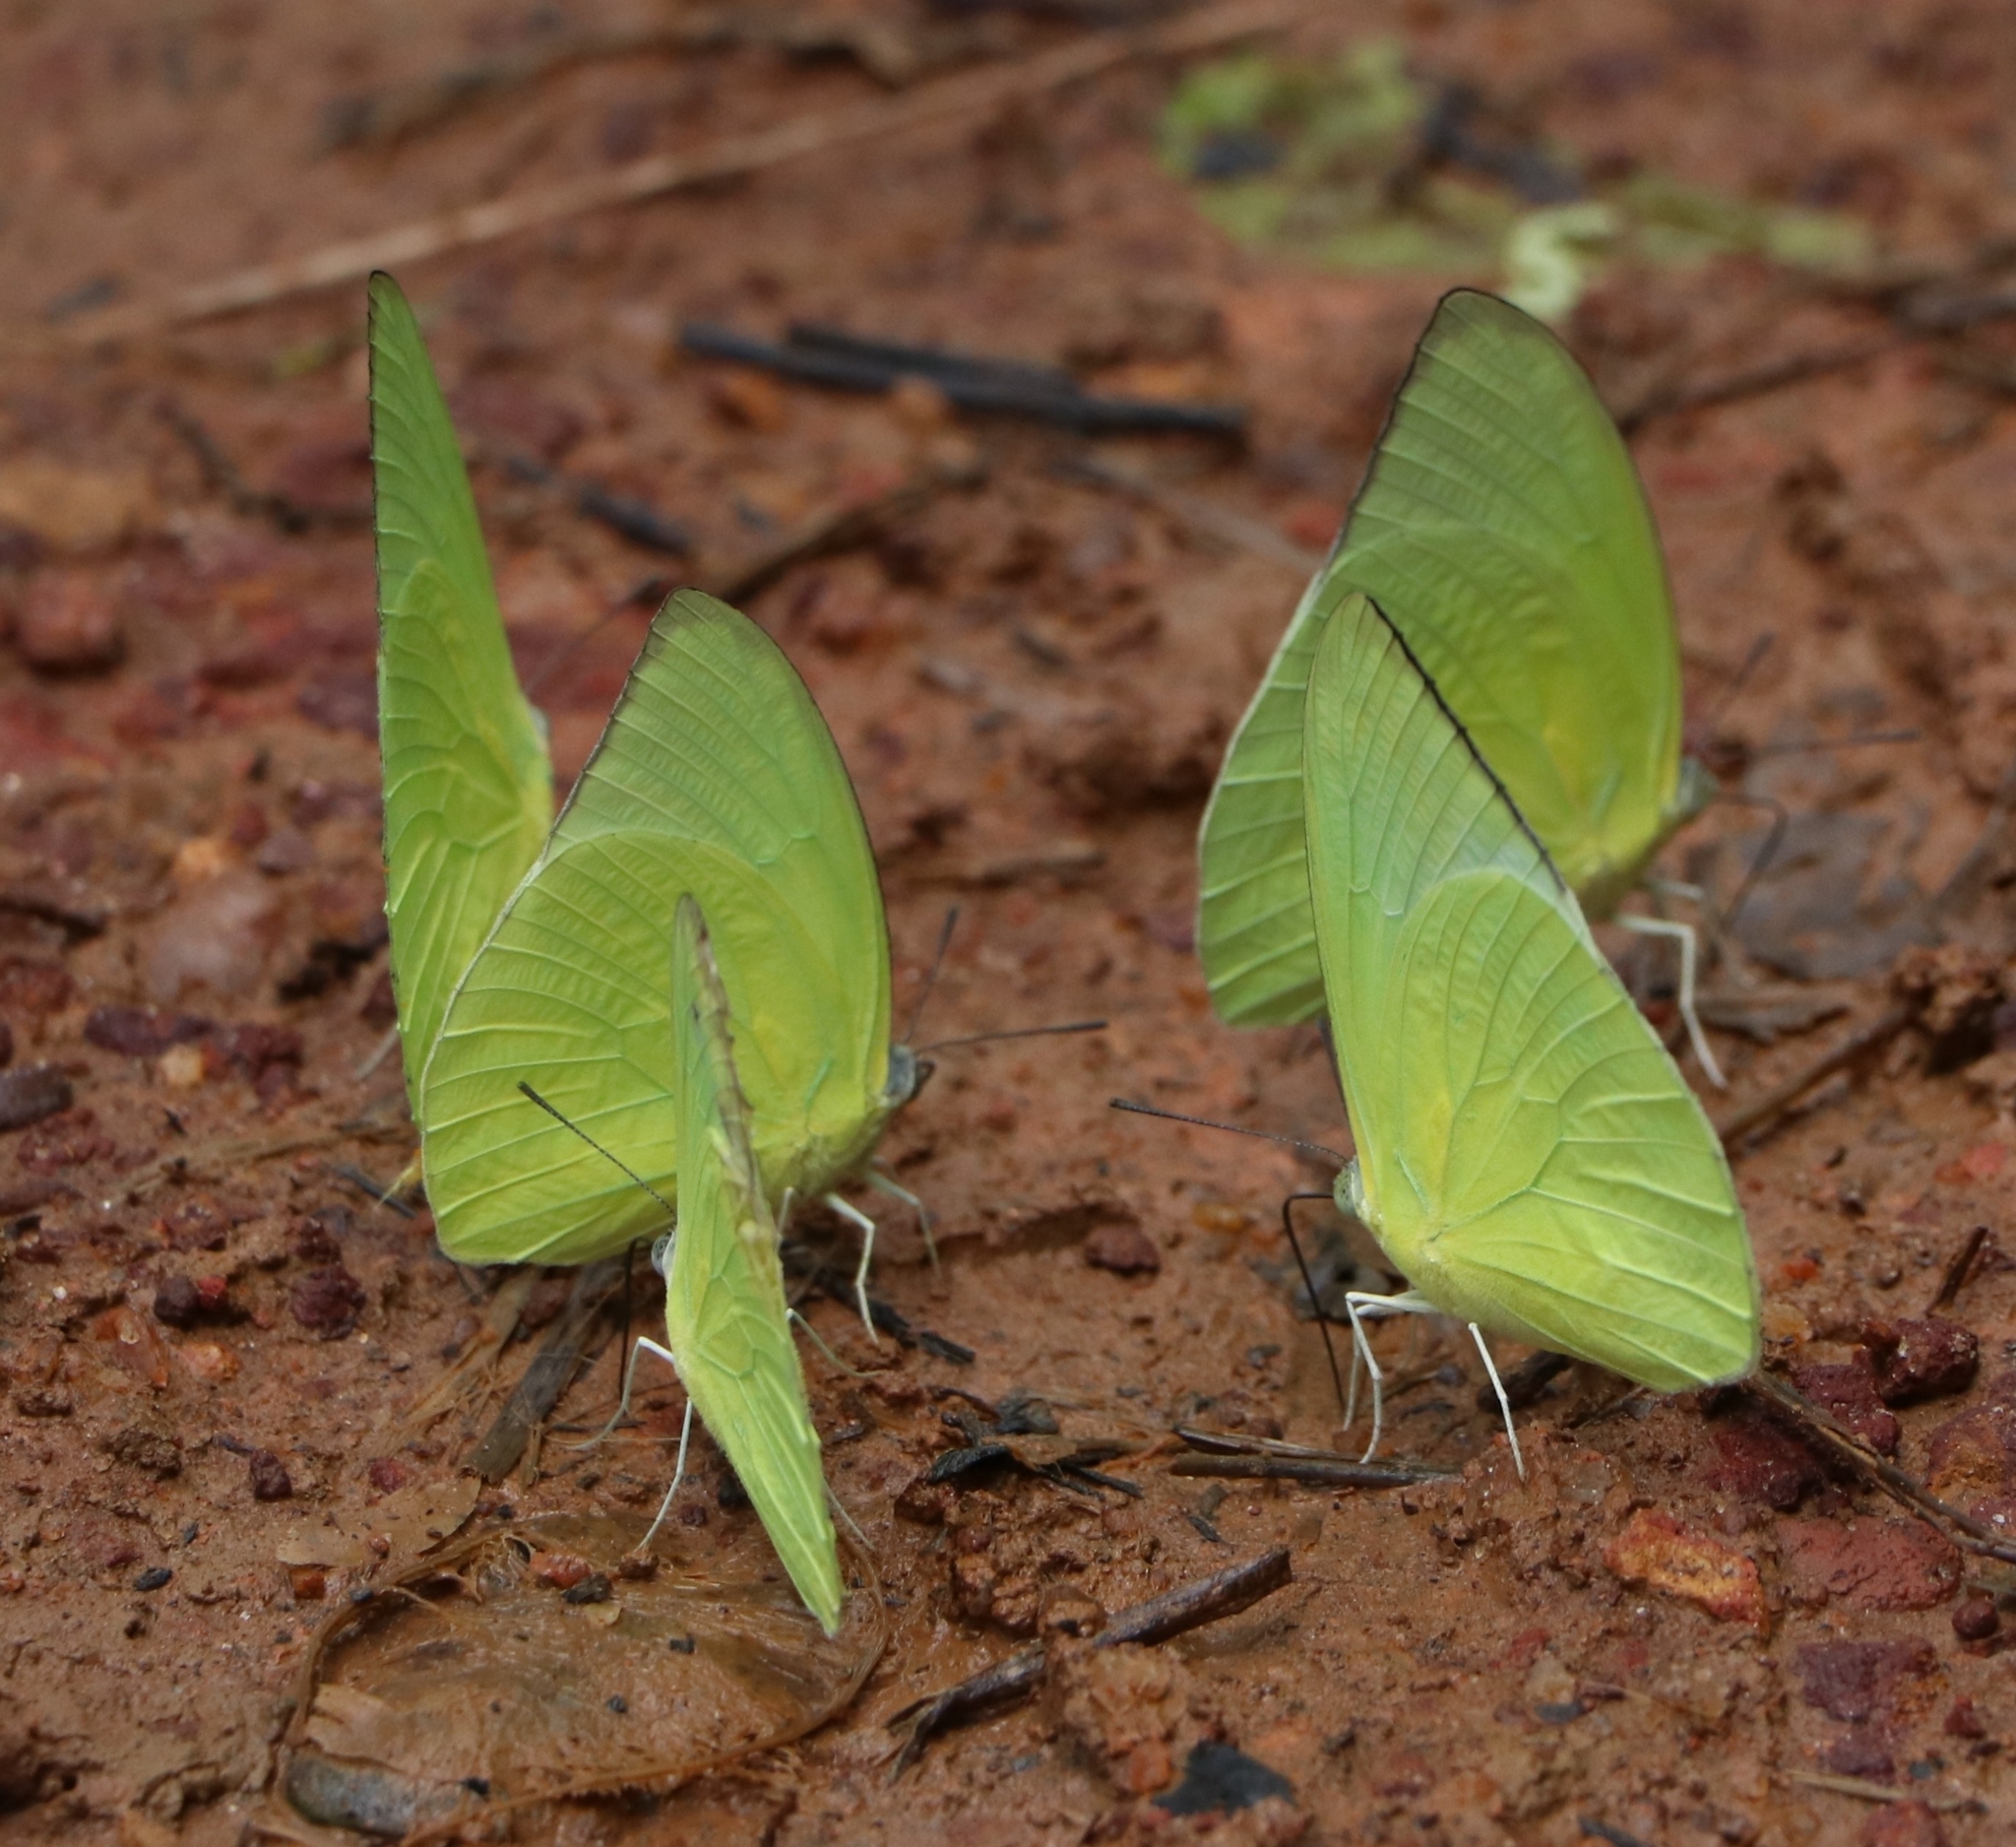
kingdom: Animalia
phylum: Arthropoda
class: Insecta
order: Lepidoptera
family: Pieridae
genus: Catopsilia
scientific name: Catopsilia pomona
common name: Common emigrant
